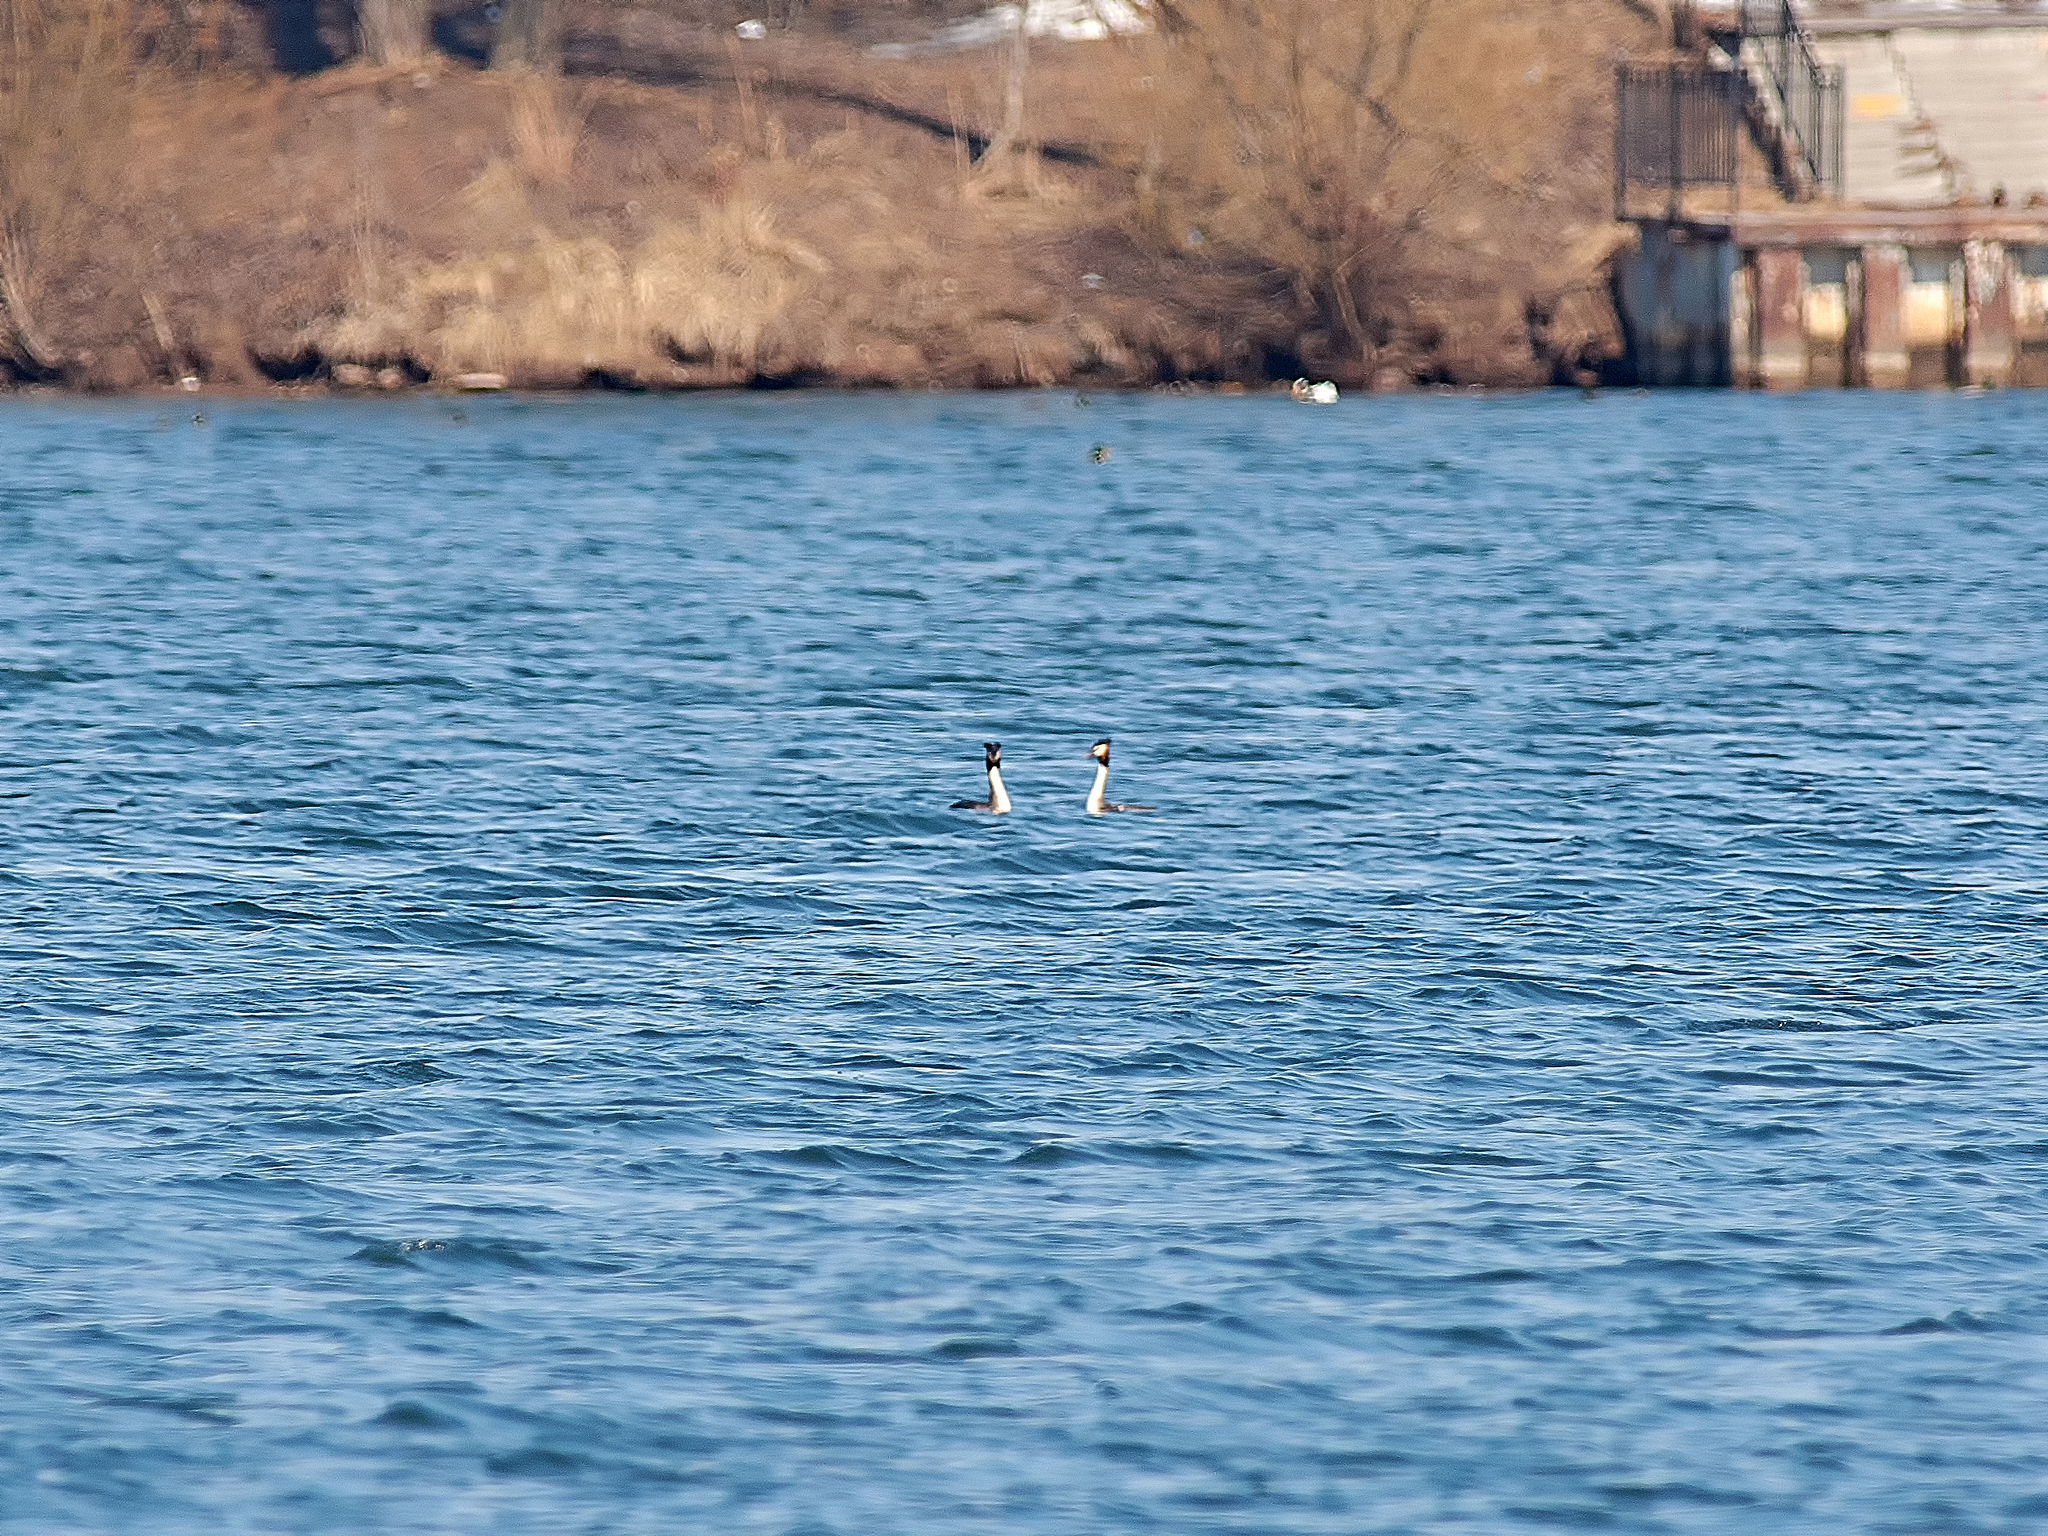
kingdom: Animalia
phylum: Chordata
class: Aves
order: Podicipediformes
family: Podicipedidae
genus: Podiceps
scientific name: Podiceps cristatus
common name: Great crested grebe
